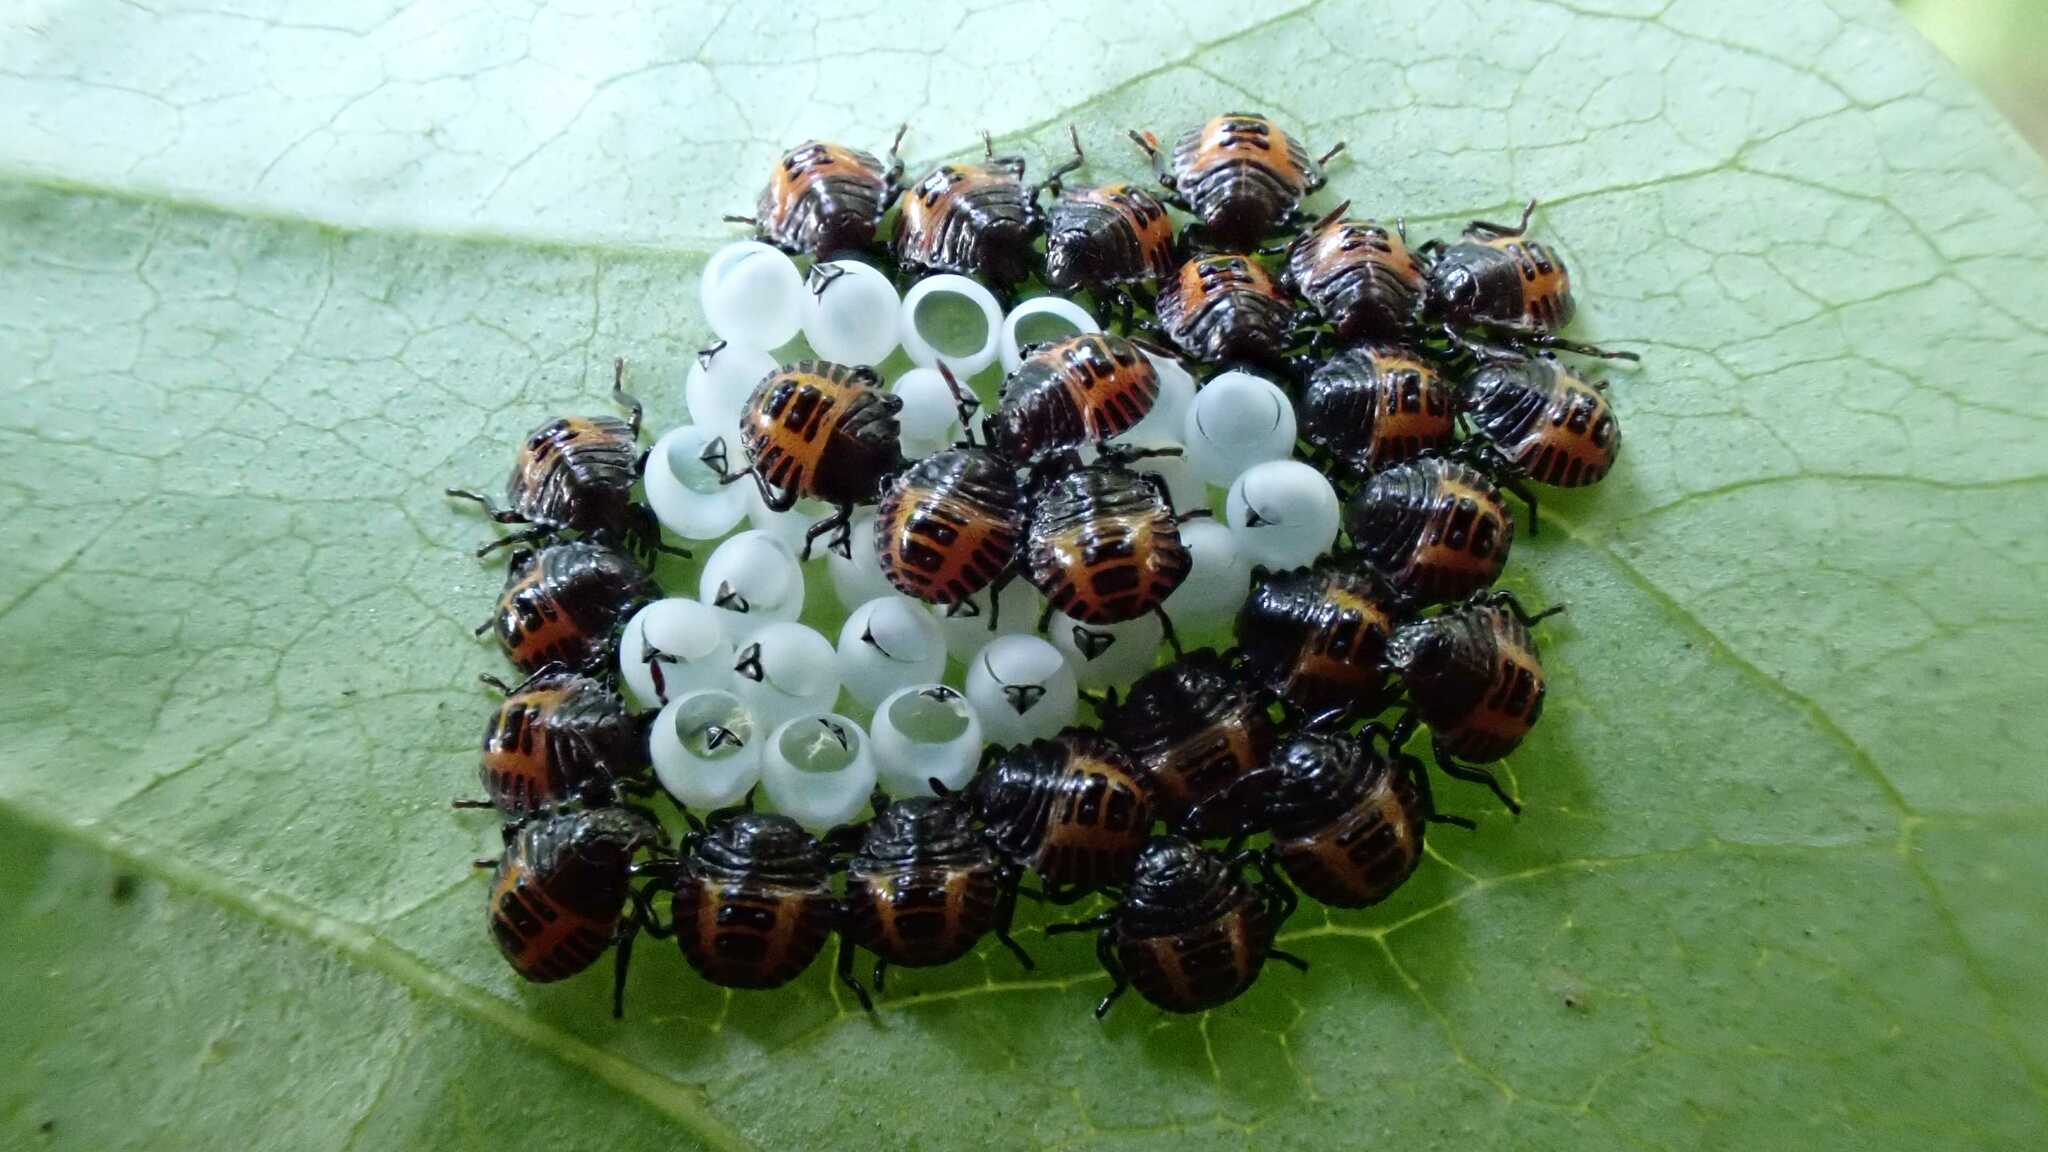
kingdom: Animalia
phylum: Arthropoda
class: Insecta
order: Hemiptera
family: Pentatomidae
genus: Halyomorpha
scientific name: Halyomorpha halys
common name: Brown marmorated stink bug
